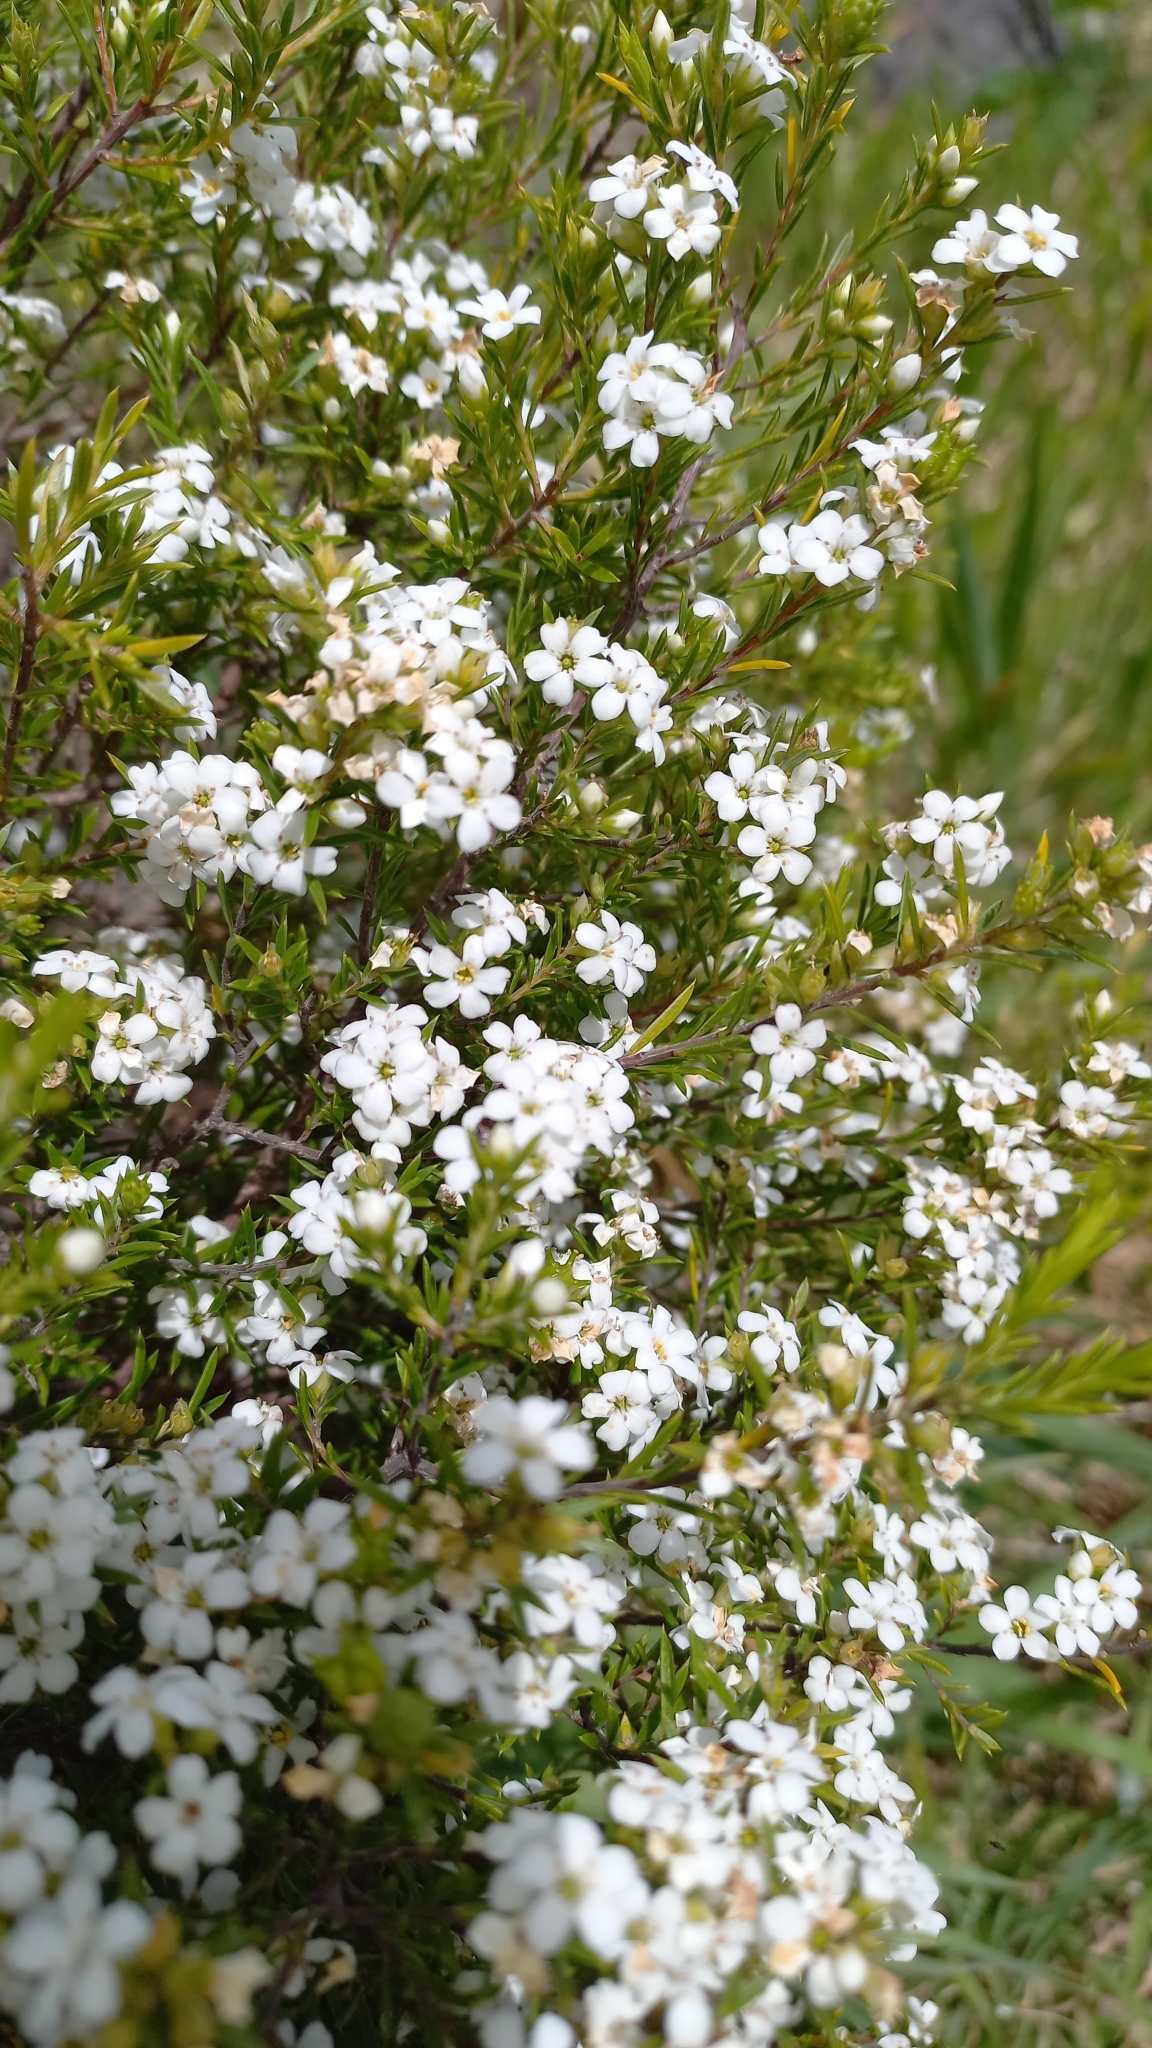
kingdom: Plantae
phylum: Tracheophyta
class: Magnoliopsida
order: Sapindales
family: Rutaceae
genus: Coleonema
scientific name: Coleonema album
